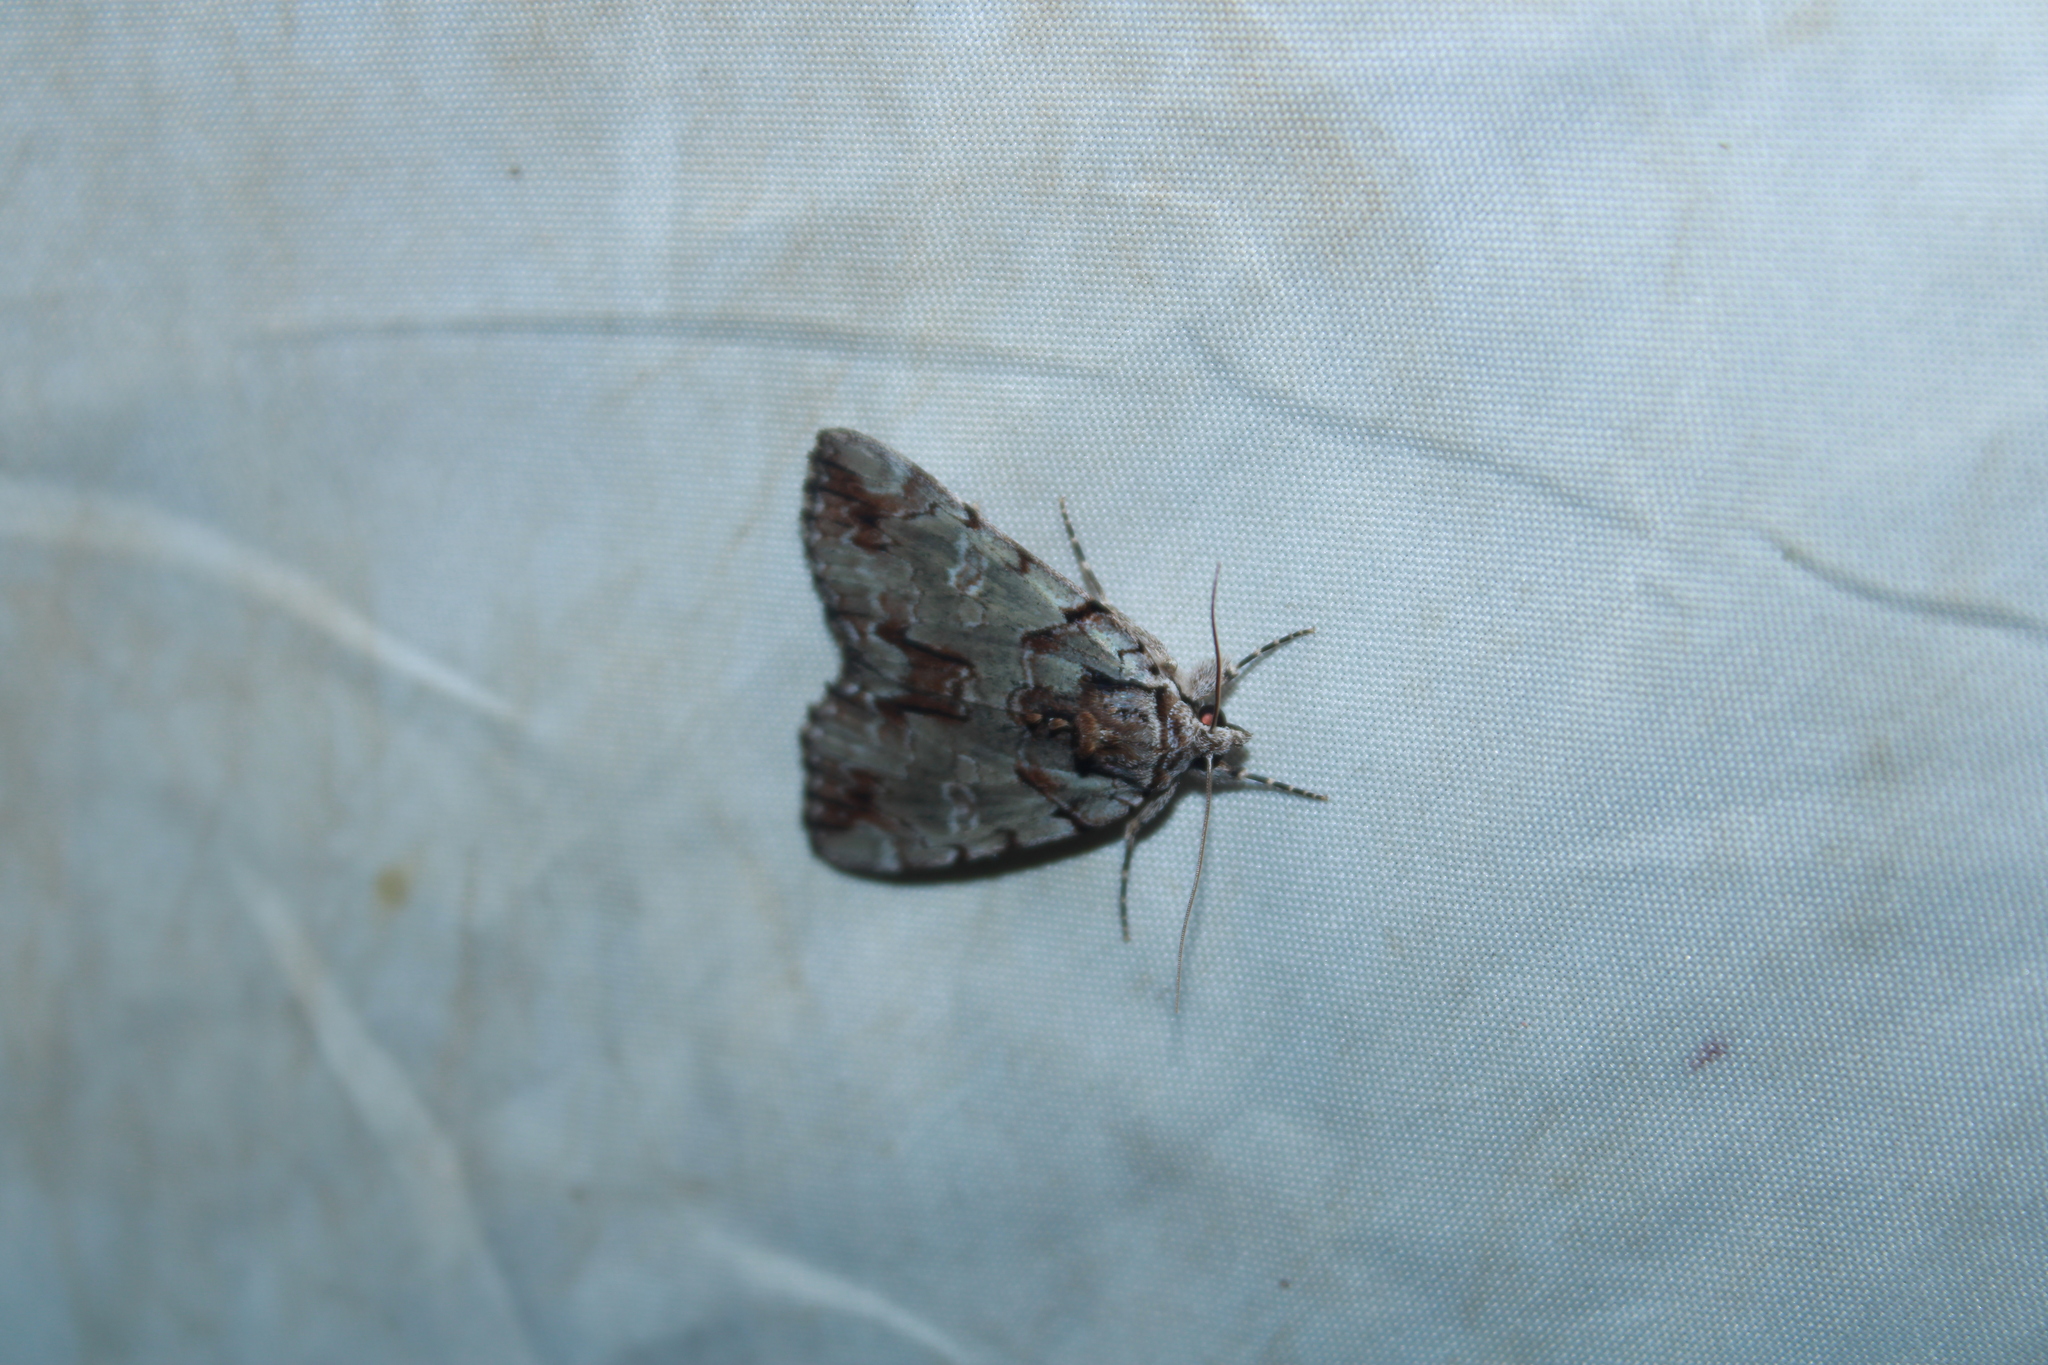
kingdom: Animalia
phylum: Arthropoda
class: Insecta
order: Lepidoptera
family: Erebidae
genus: Catocala
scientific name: Catocala praeclara
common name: Praeclara underwing
